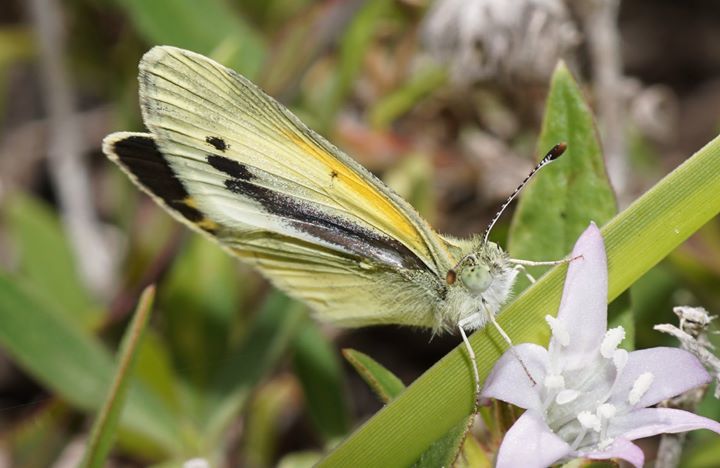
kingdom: Animalia
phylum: Arthropoda
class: Insecta
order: Lepidoptera
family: Pieridae
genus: Nathalis
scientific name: Nathalis iole
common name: Dainty sulphur
